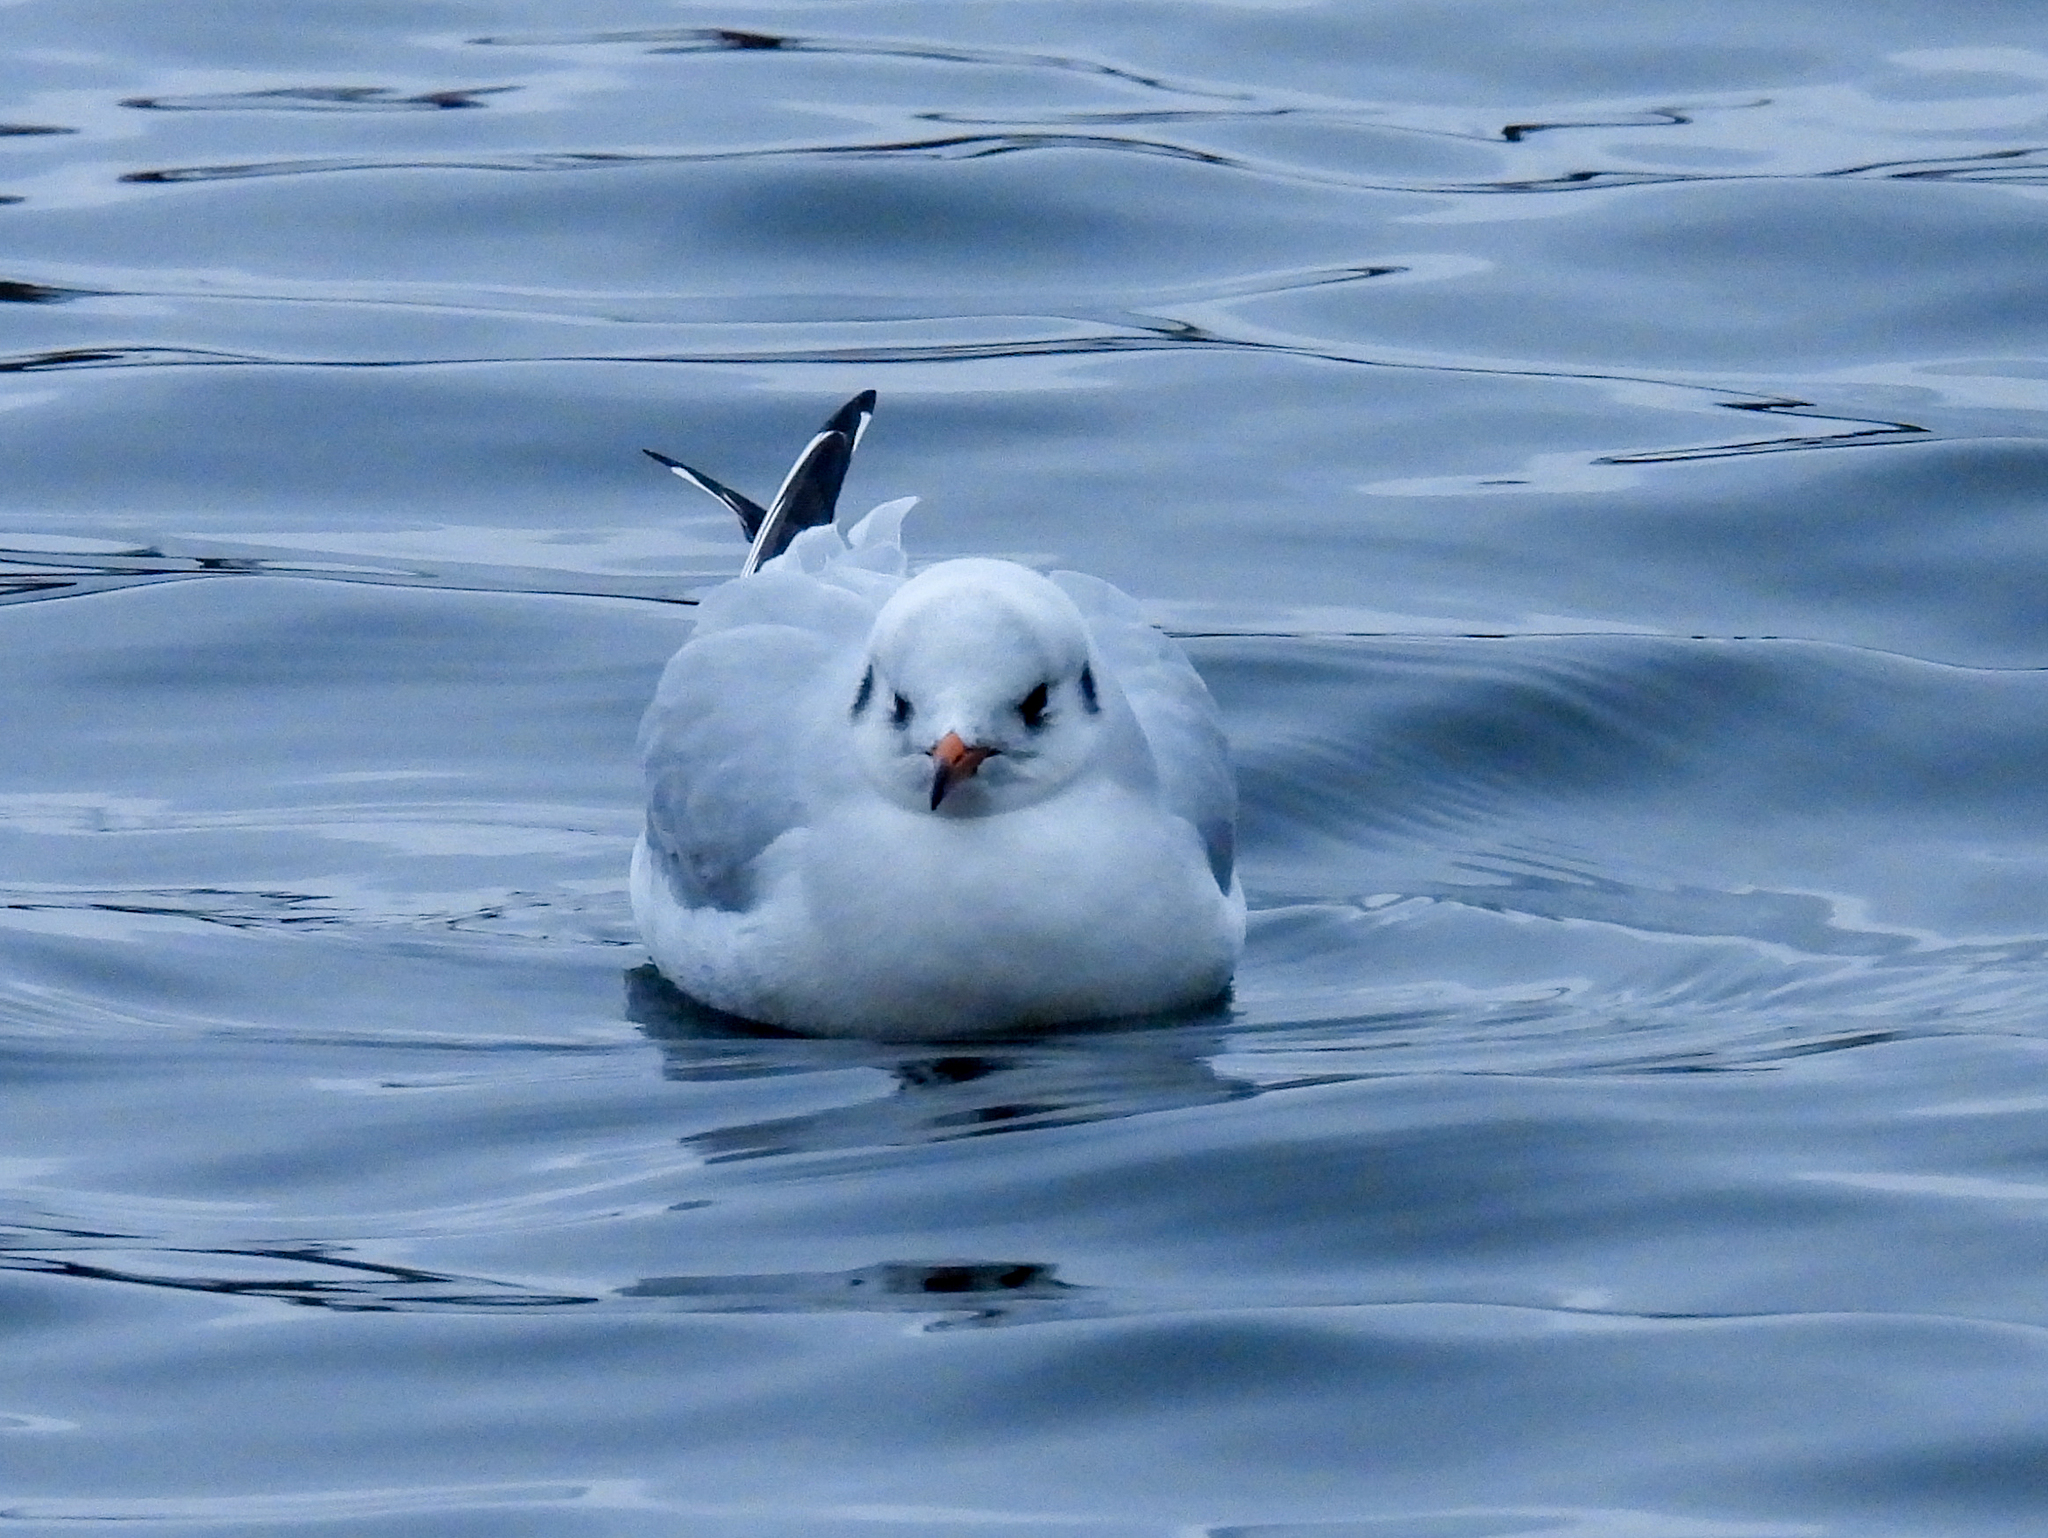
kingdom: Animalia
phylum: Chordata
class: Aves
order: Charadriiformes
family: Laridae
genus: Chroicocephalus
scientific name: Chroicocephalus ridibundus
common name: Black-headed gull
